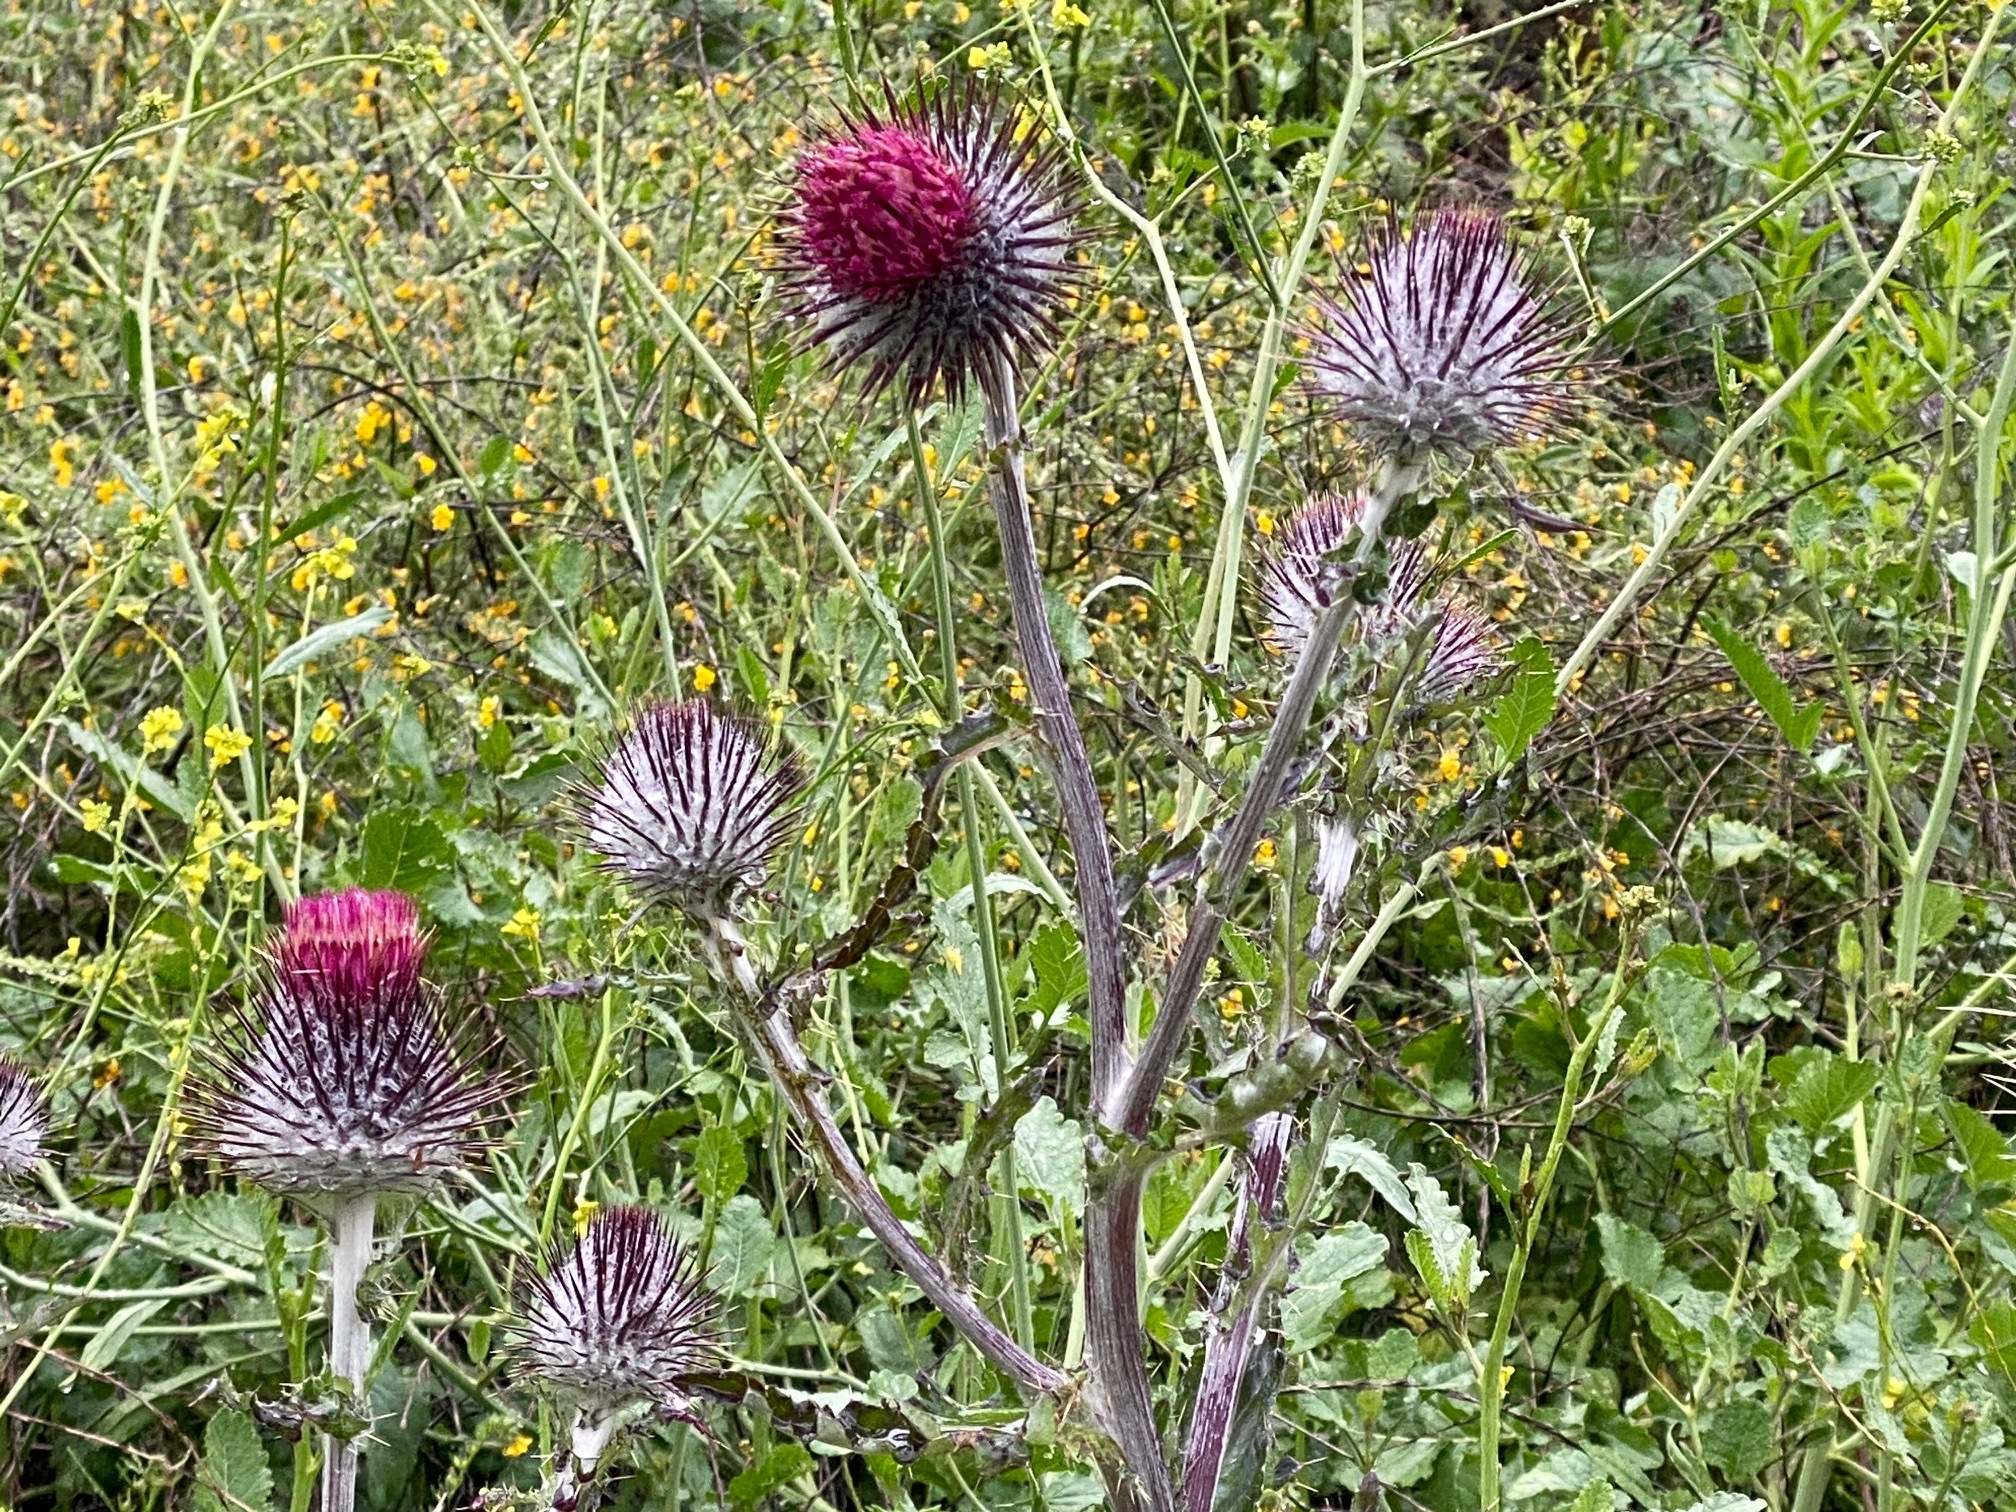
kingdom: Plantae
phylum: Tracheophyta
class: Magnoliopsida
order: Asterales
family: Asteraceae
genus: Cirsium
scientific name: Cirsium occidentale
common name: Western thistle
